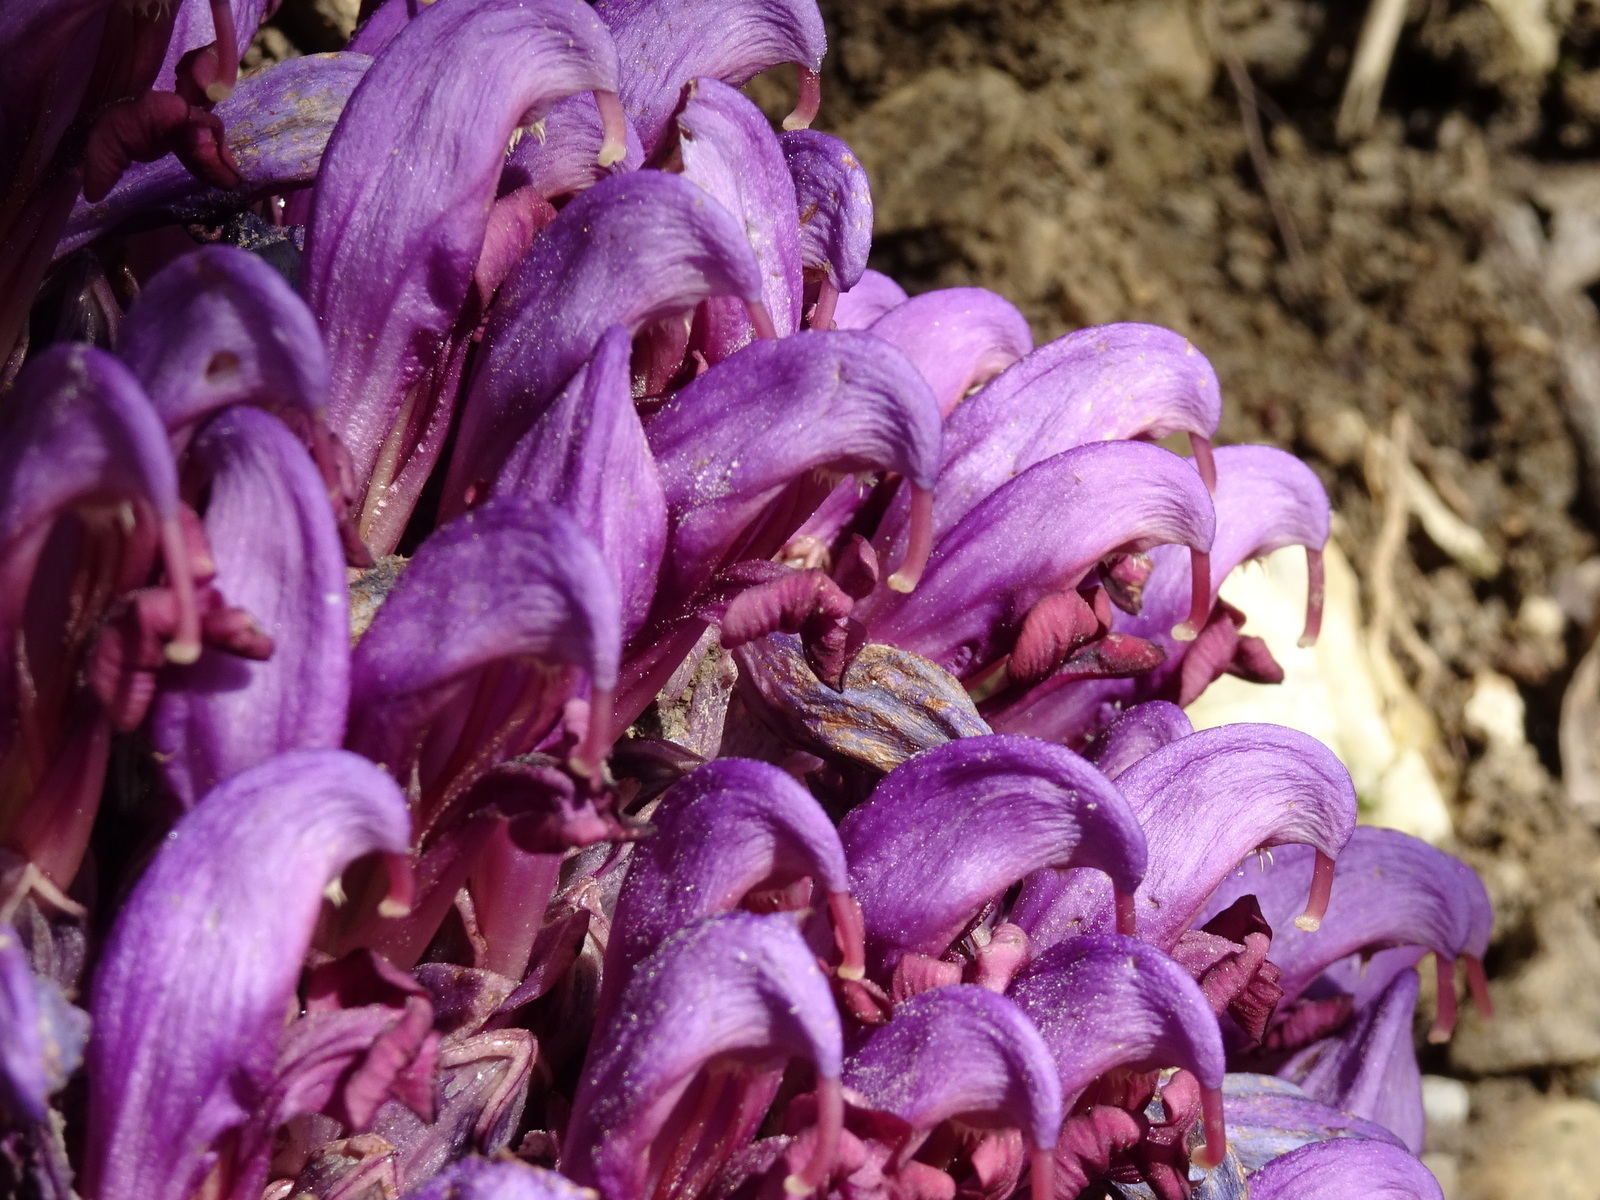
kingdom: Plantae
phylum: Tracheophyta
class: Magnoliopsida
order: Lamiales
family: Orobanchaceae
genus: Lathraea
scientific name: Lathraea clandestina
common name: Purple toothwort
